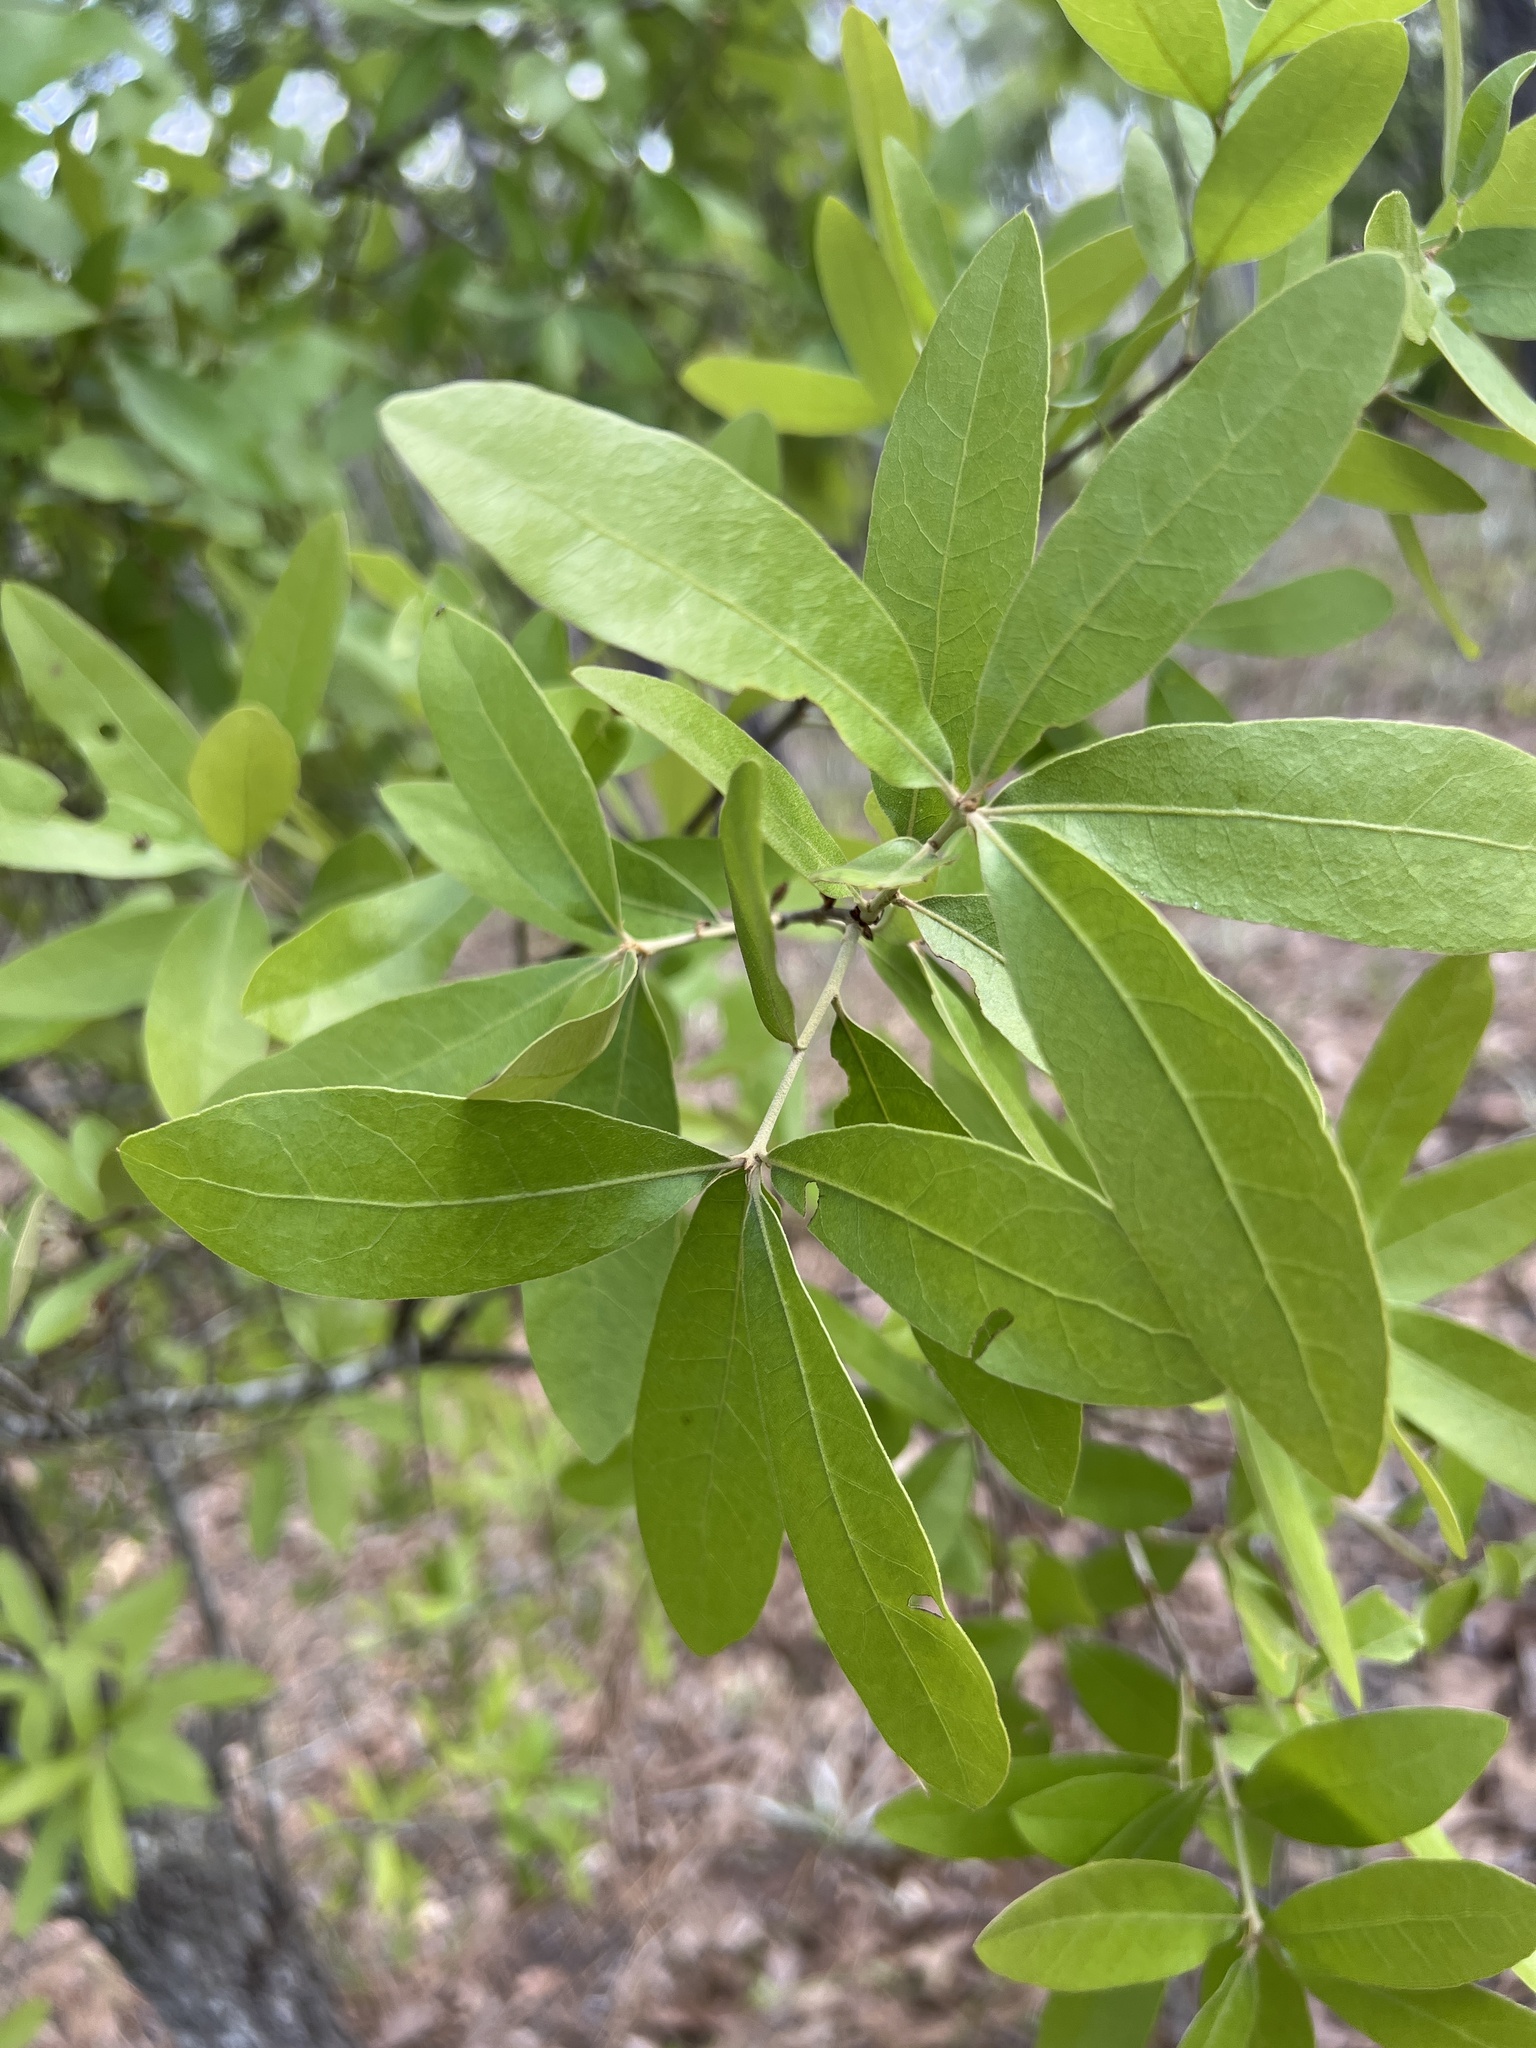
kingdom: Plantae
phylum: Tracheophyta
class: Magnoliopsida
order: Fagales
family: Fagaceae
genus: Quercus
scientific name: Quercus incana
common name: Bluejack oak
